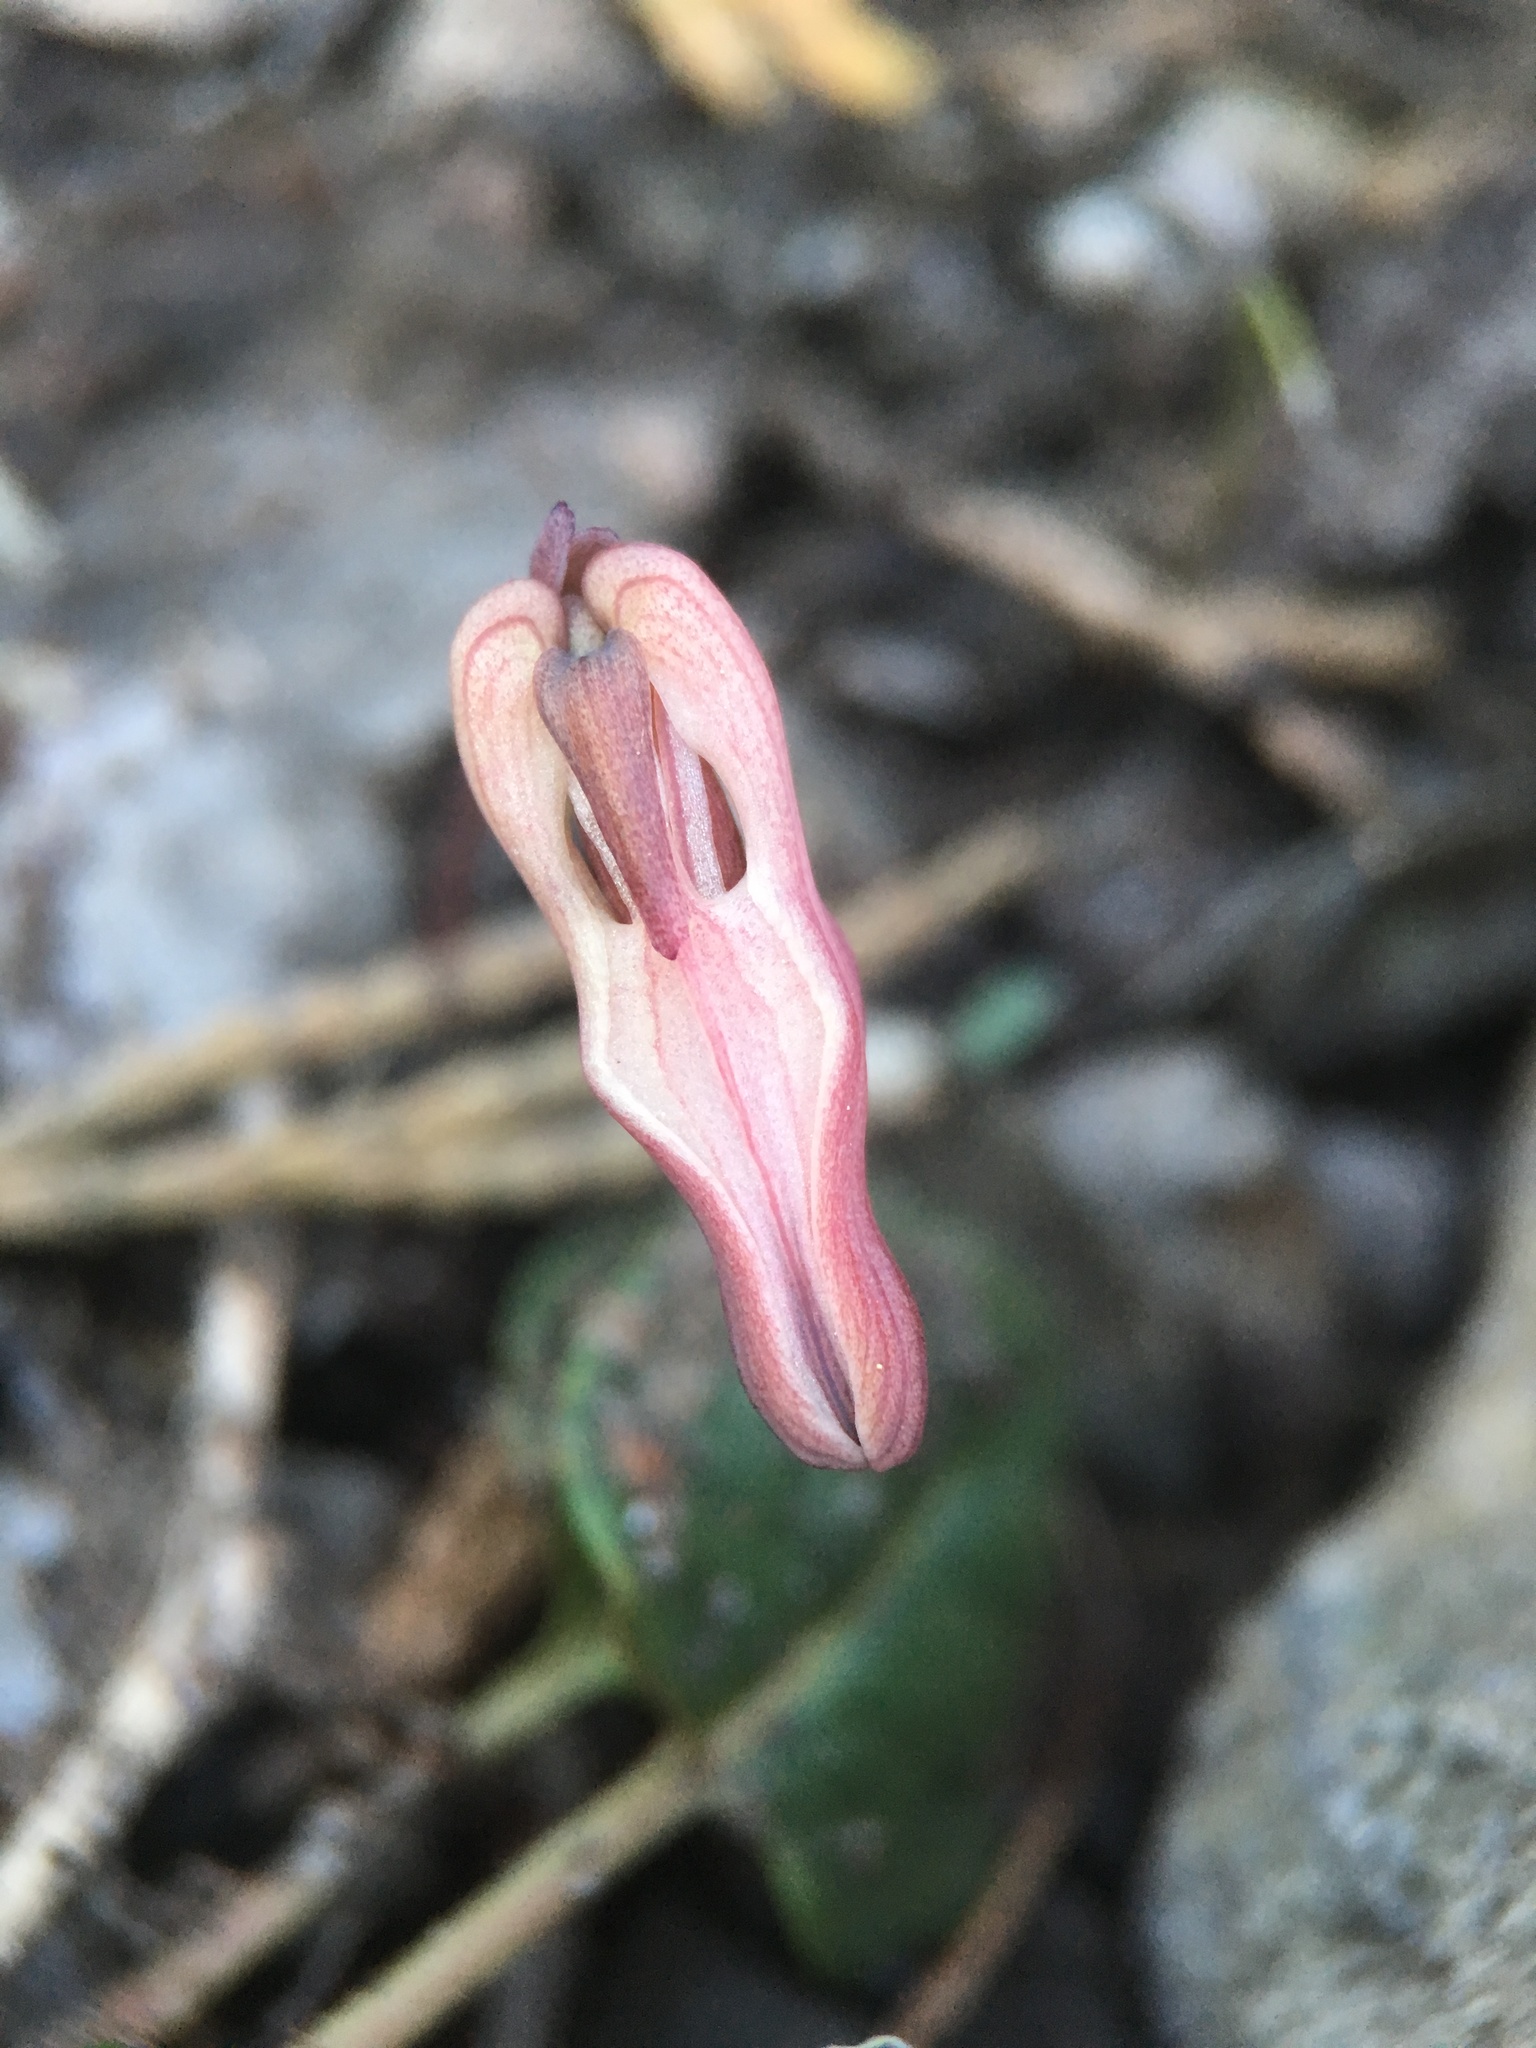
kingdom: Plantae
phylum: Tracheophyta
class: Magnoliopsida
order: Ranunculales
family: Papaveraceae
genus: Dicentra
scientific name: Dicentra uniflora
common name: Steer's-head
